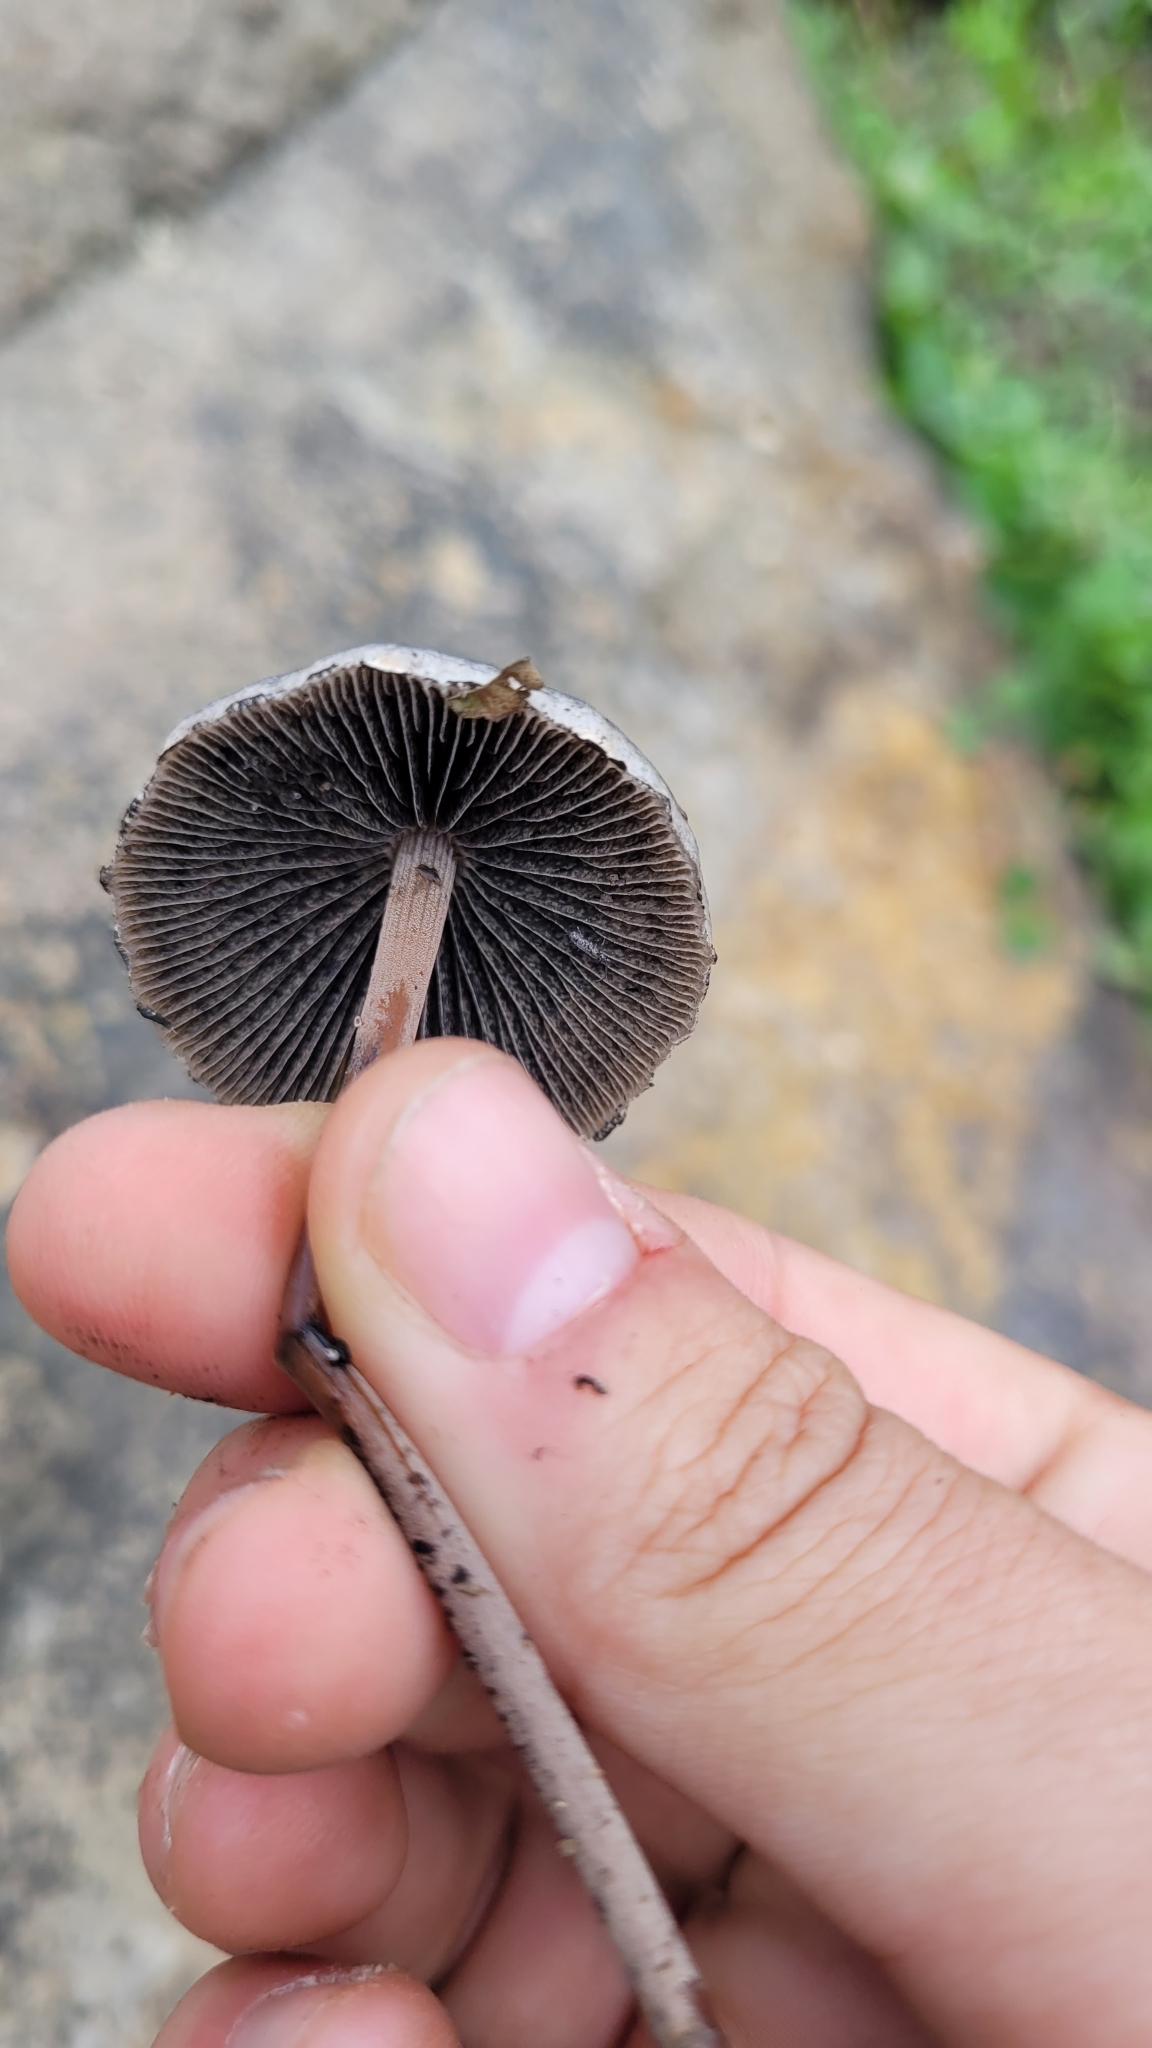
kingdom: Fungi
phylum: Basidiomycota
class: Agaricomycetes
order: Agaricales
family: Bolbitiaceae
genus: Panaeolus
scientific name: Panaeolus papilionaceus
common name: Petticoat mottlegill
